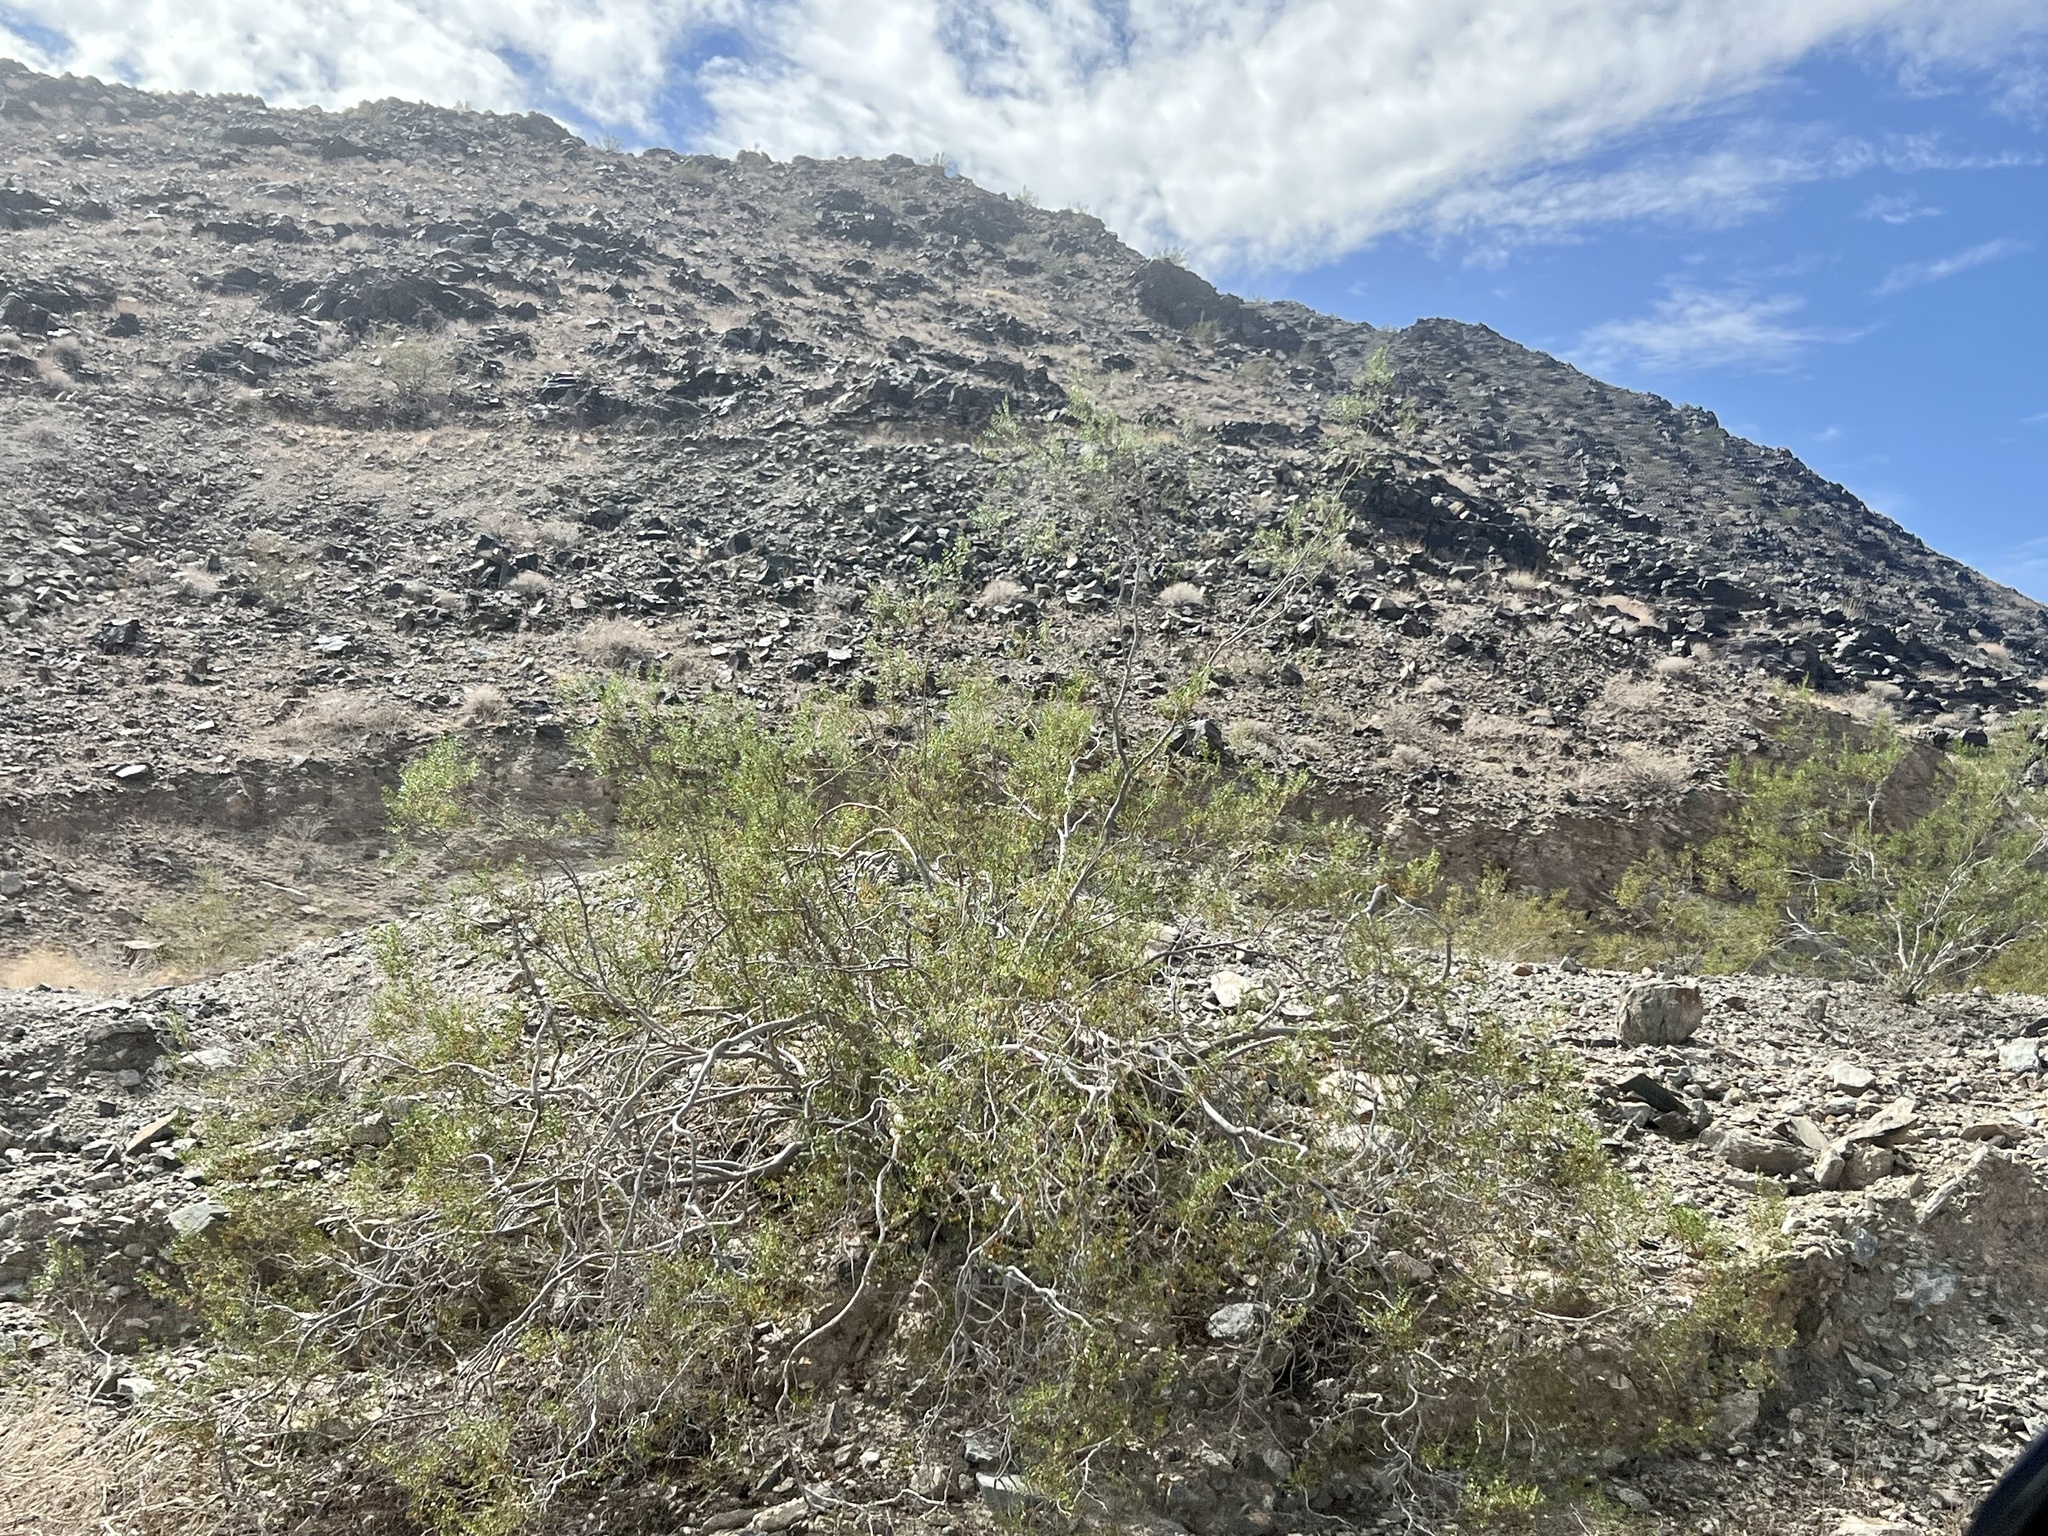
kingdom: Plantae
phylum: Tracheophyta
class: Magnoliopsida
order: Zygophyllales
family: Zygophyllaceae
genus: Larrea
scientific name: Larrea tridentata
